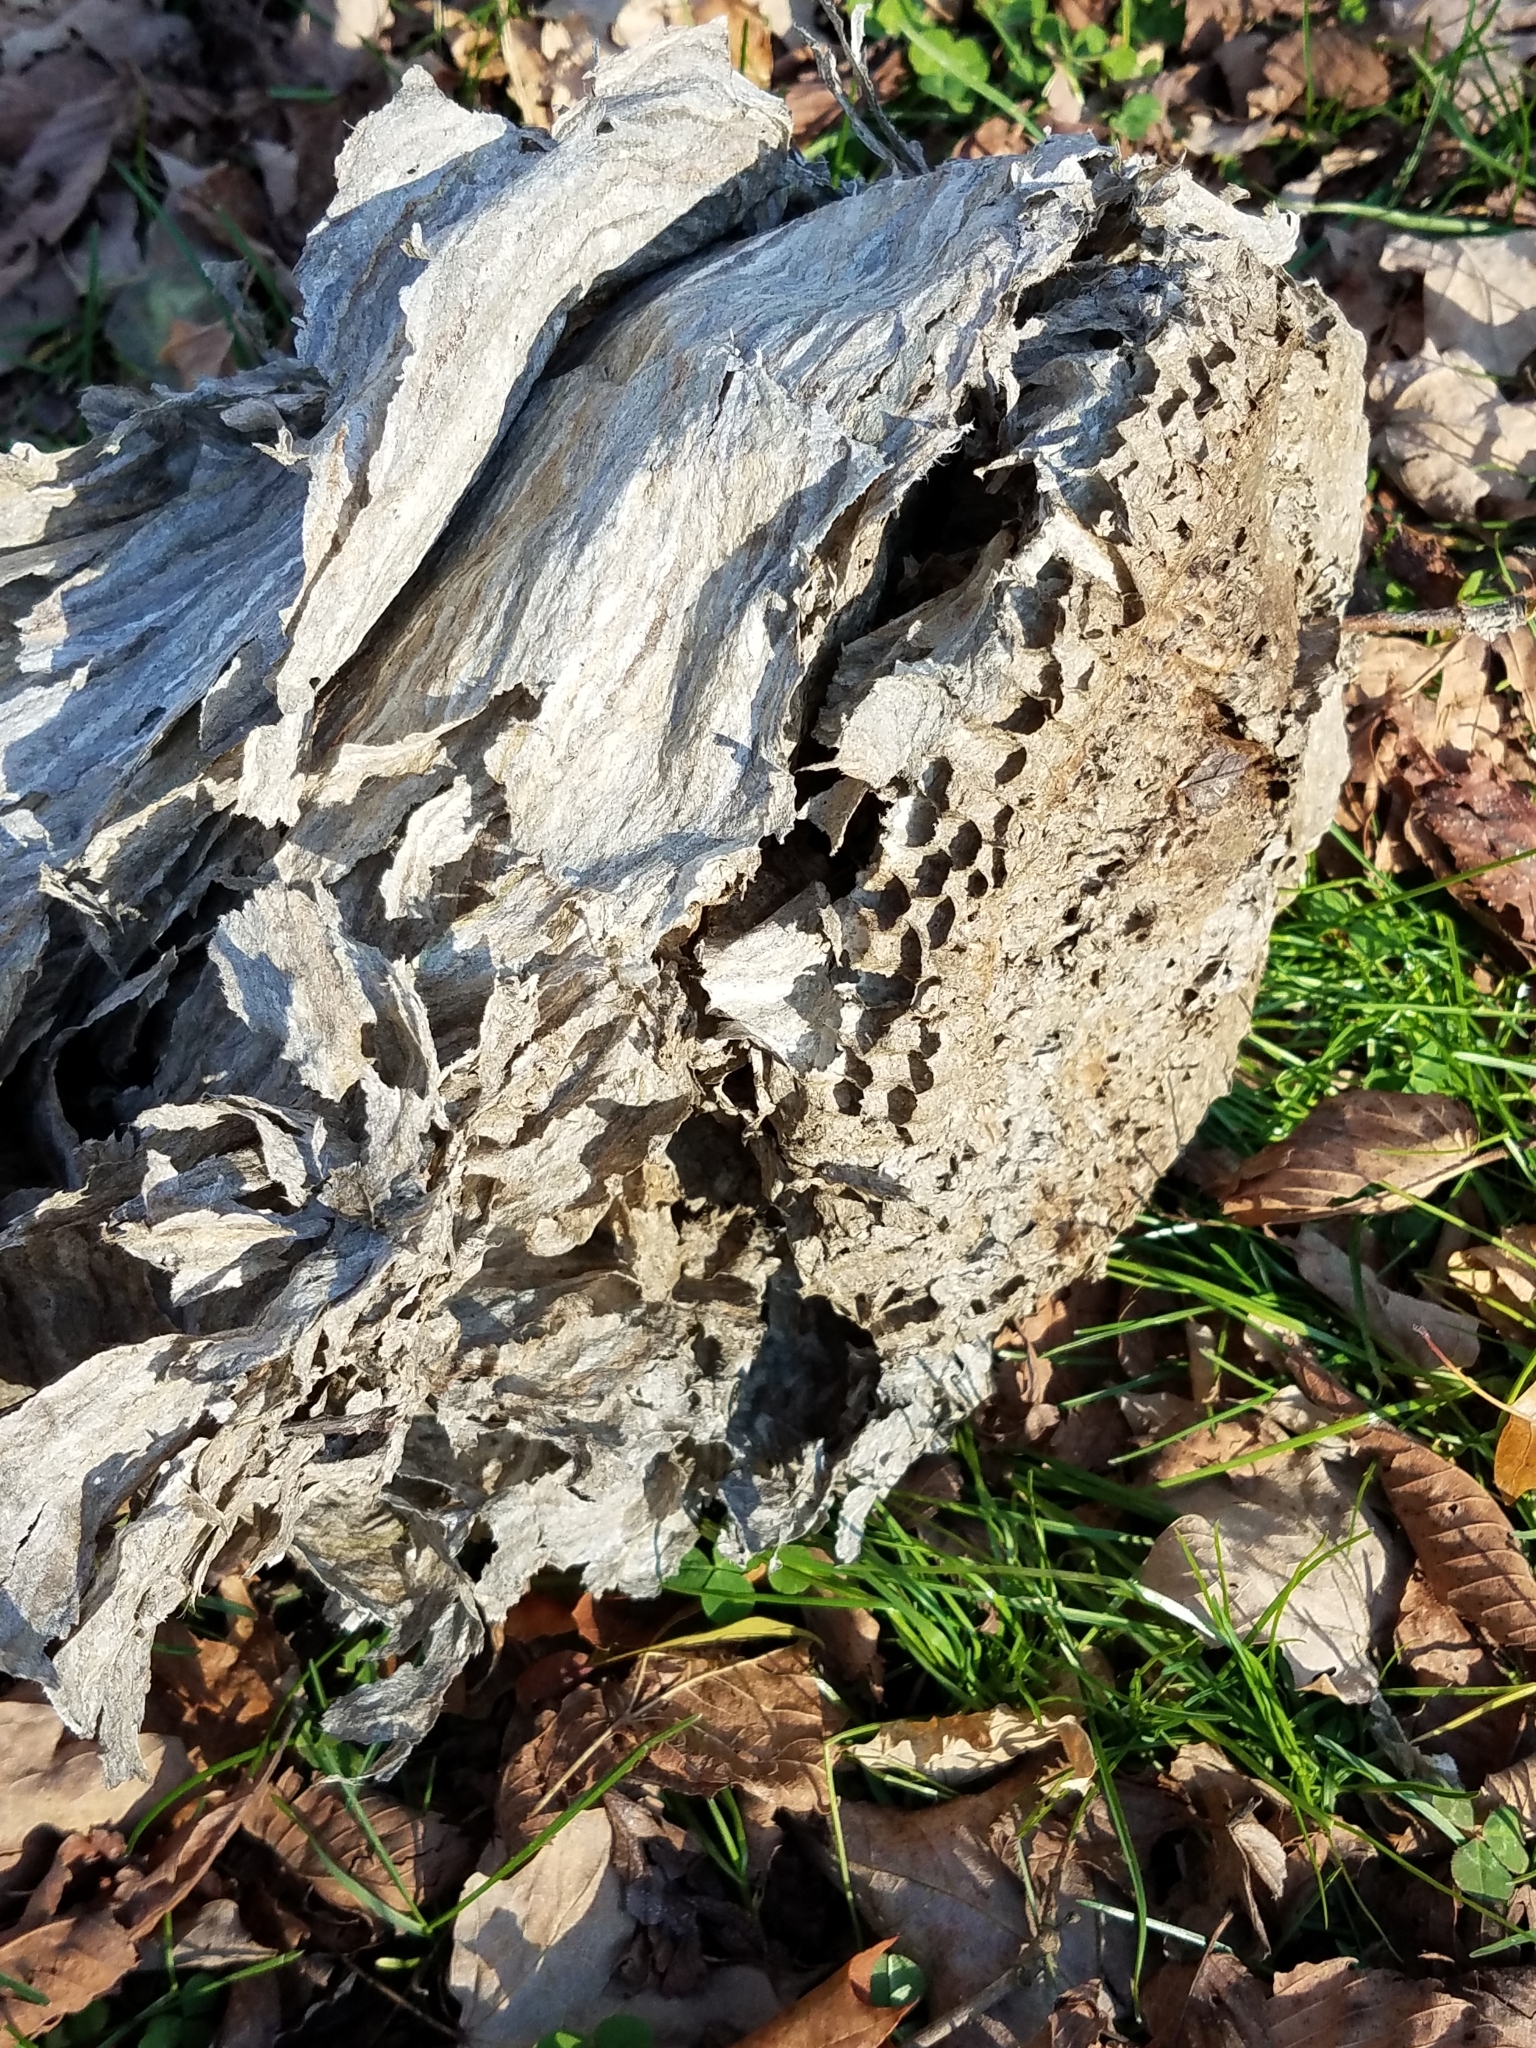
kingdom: Animalia
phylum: Arthropoda
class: Insecta
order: Hymenoptera
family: Vespidae
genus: Dolichovespula
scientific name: Dolichovespula
